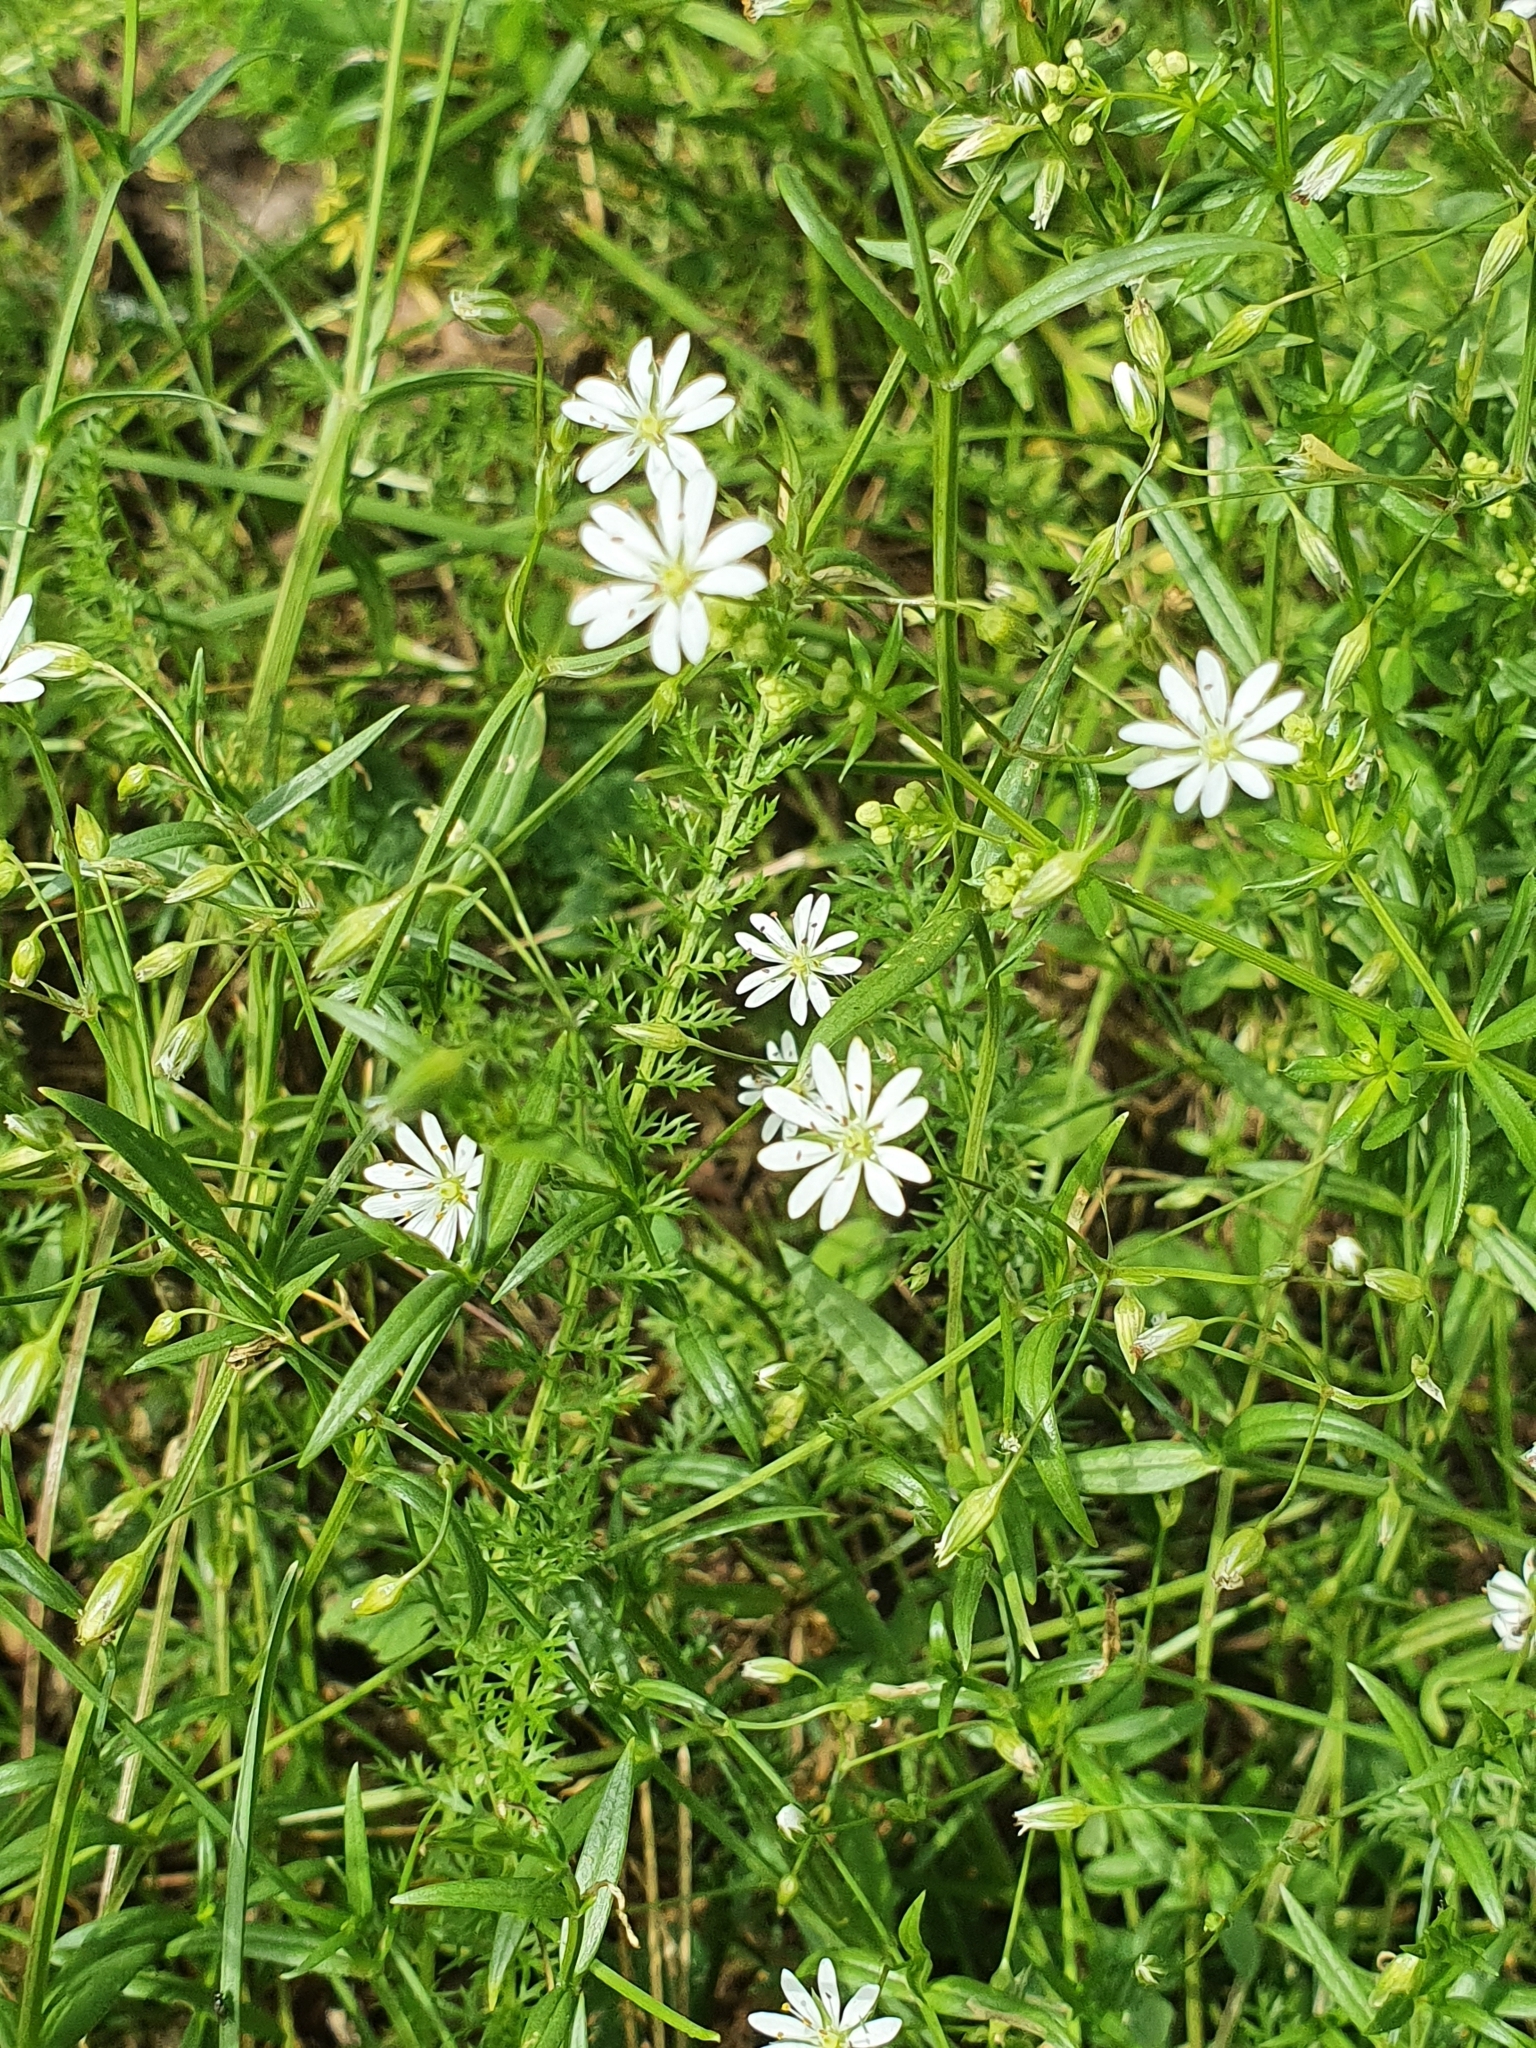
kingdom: Plantae
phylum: Tracheophyta
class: Magnoliopsida
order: Caryophyllales
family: Caryophyllaceae
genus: Stellaria
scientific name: Stellaria graminea
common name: Grass-like starwort
